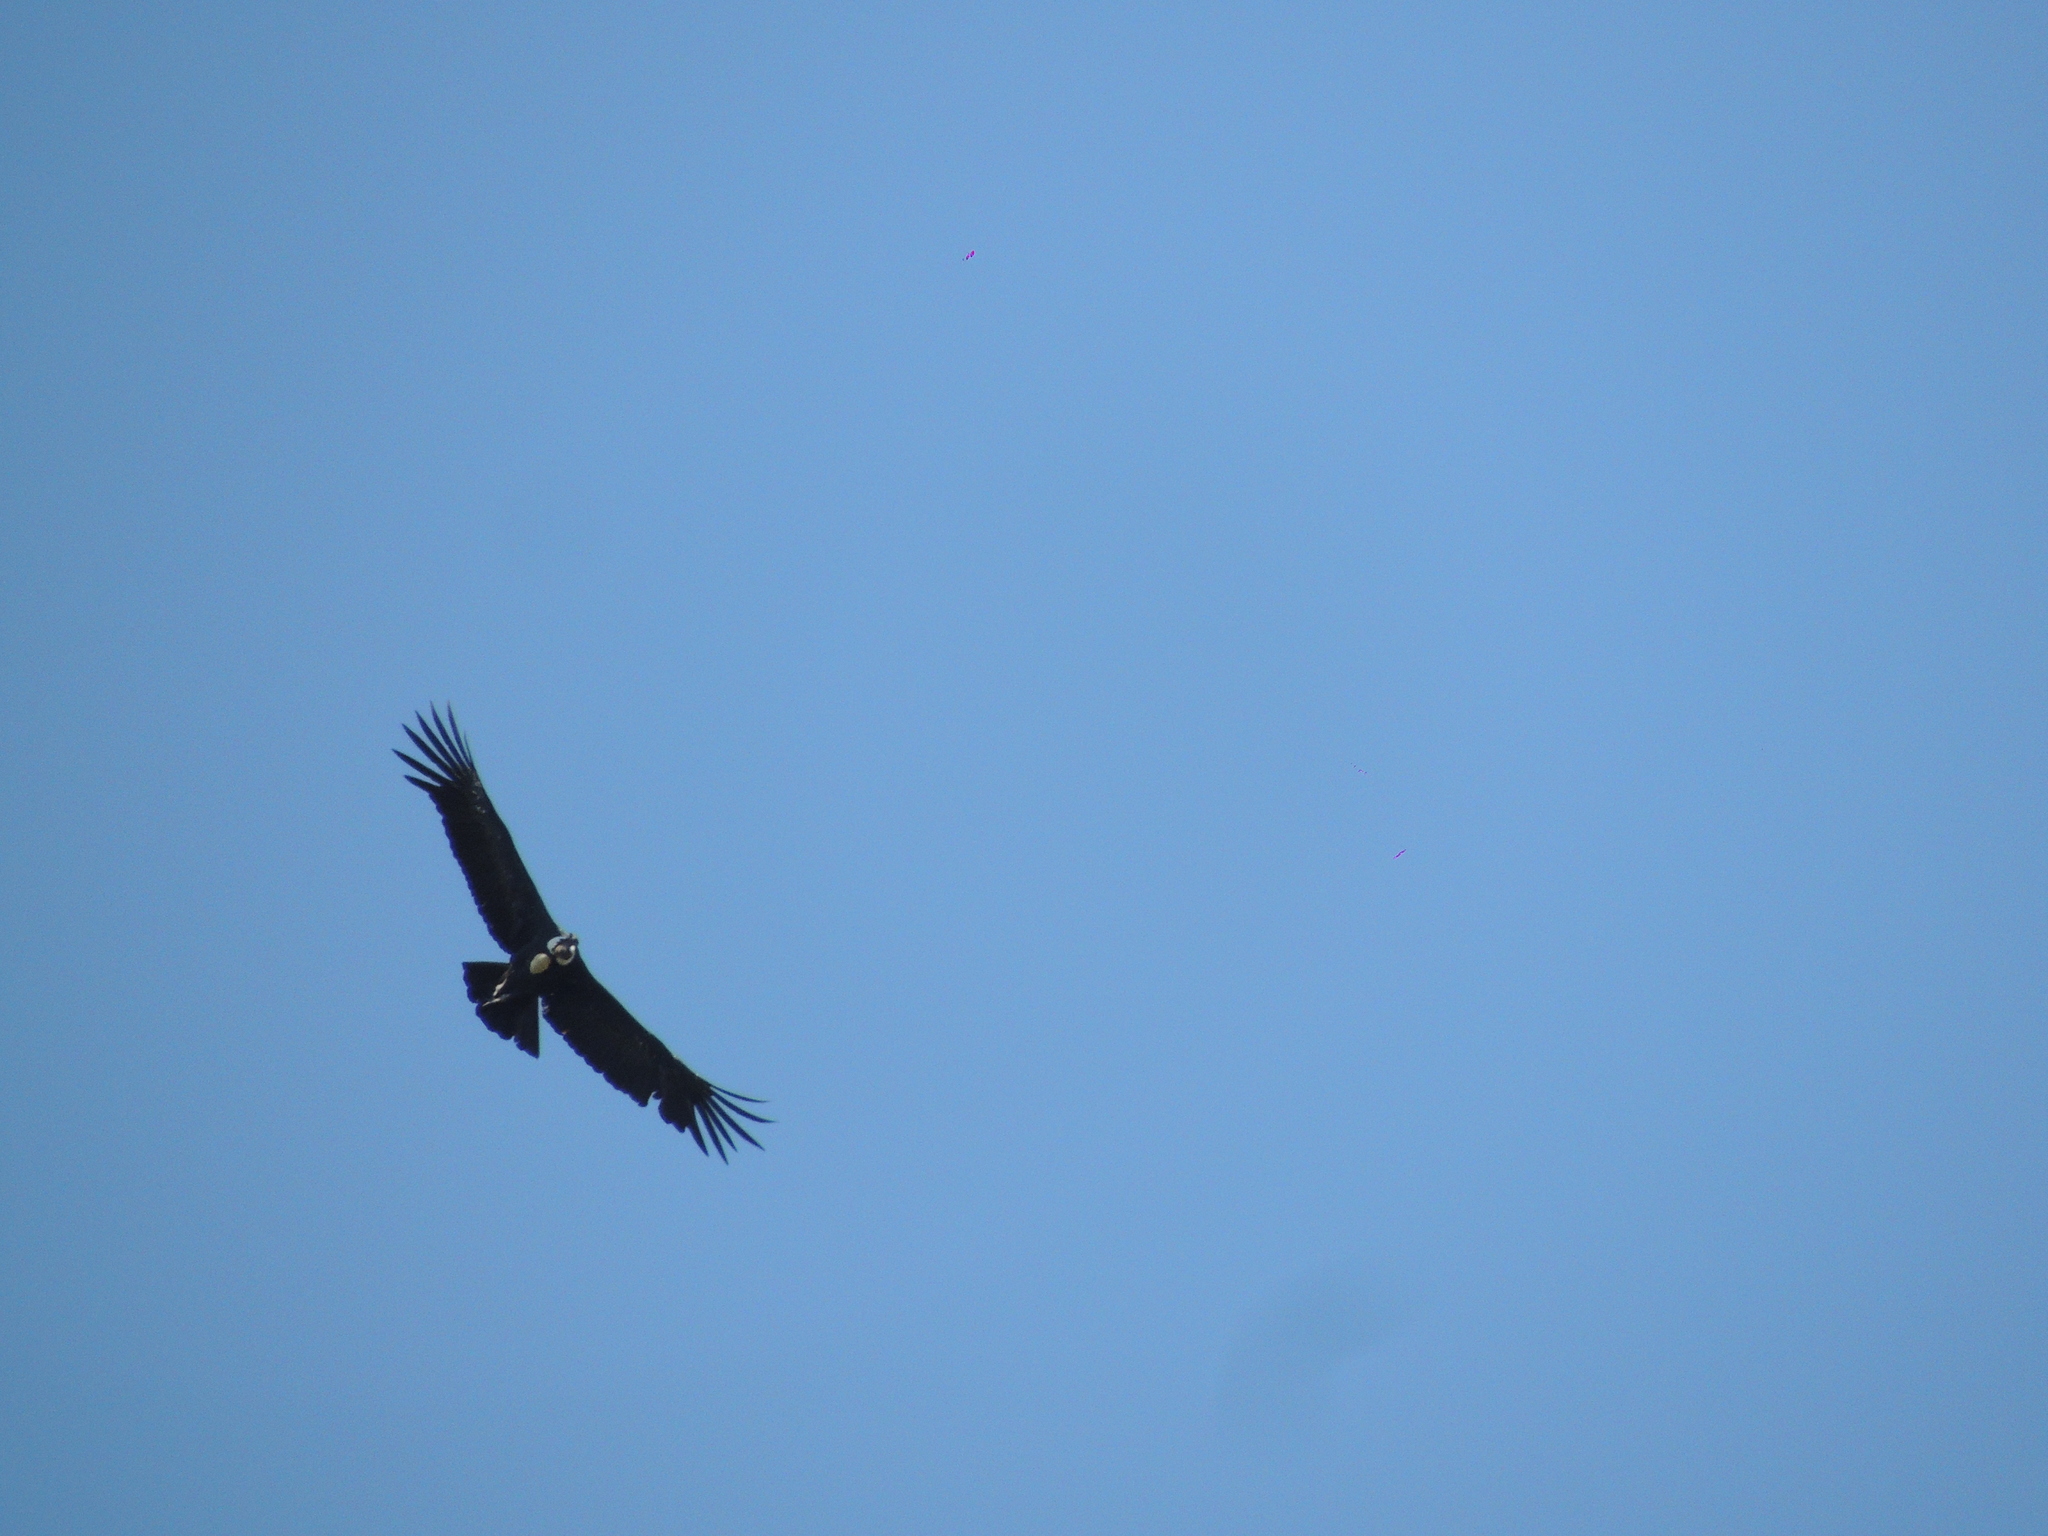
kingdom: Animalia
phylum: Chordata
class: Aves
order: Accipitriformes
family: Cathartidae
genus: Vultur
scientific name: Vultur gryphus
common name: Andean condor
